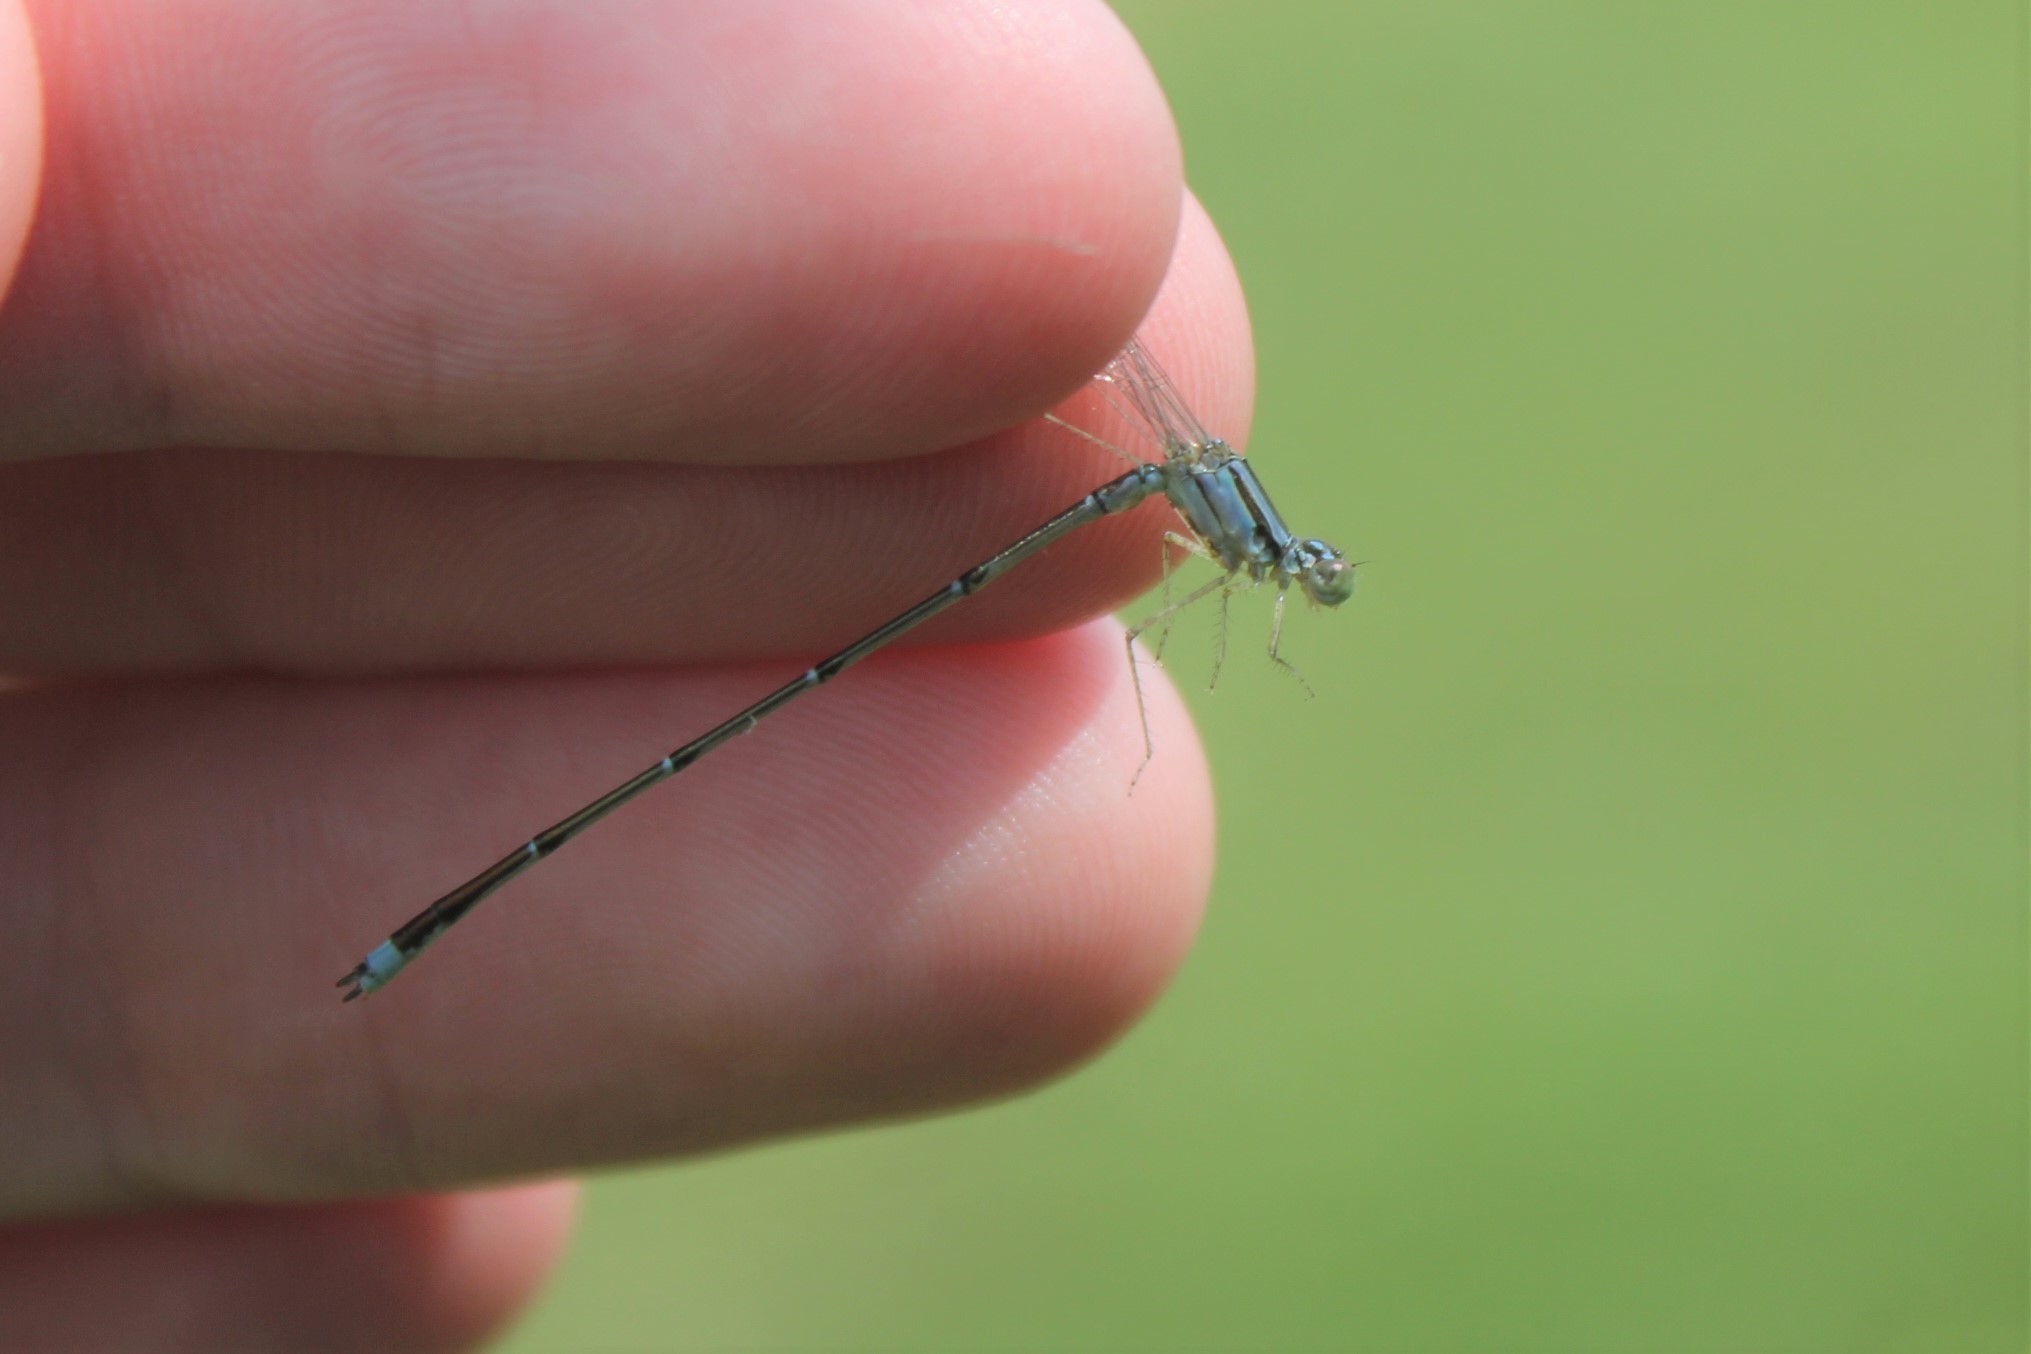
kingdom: Animalia
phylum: Arthropoda
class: Insecta
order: Odonata
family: Coenagrionidae
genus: Enallagma
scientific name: Enallagma signatum
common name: Orange bluet
